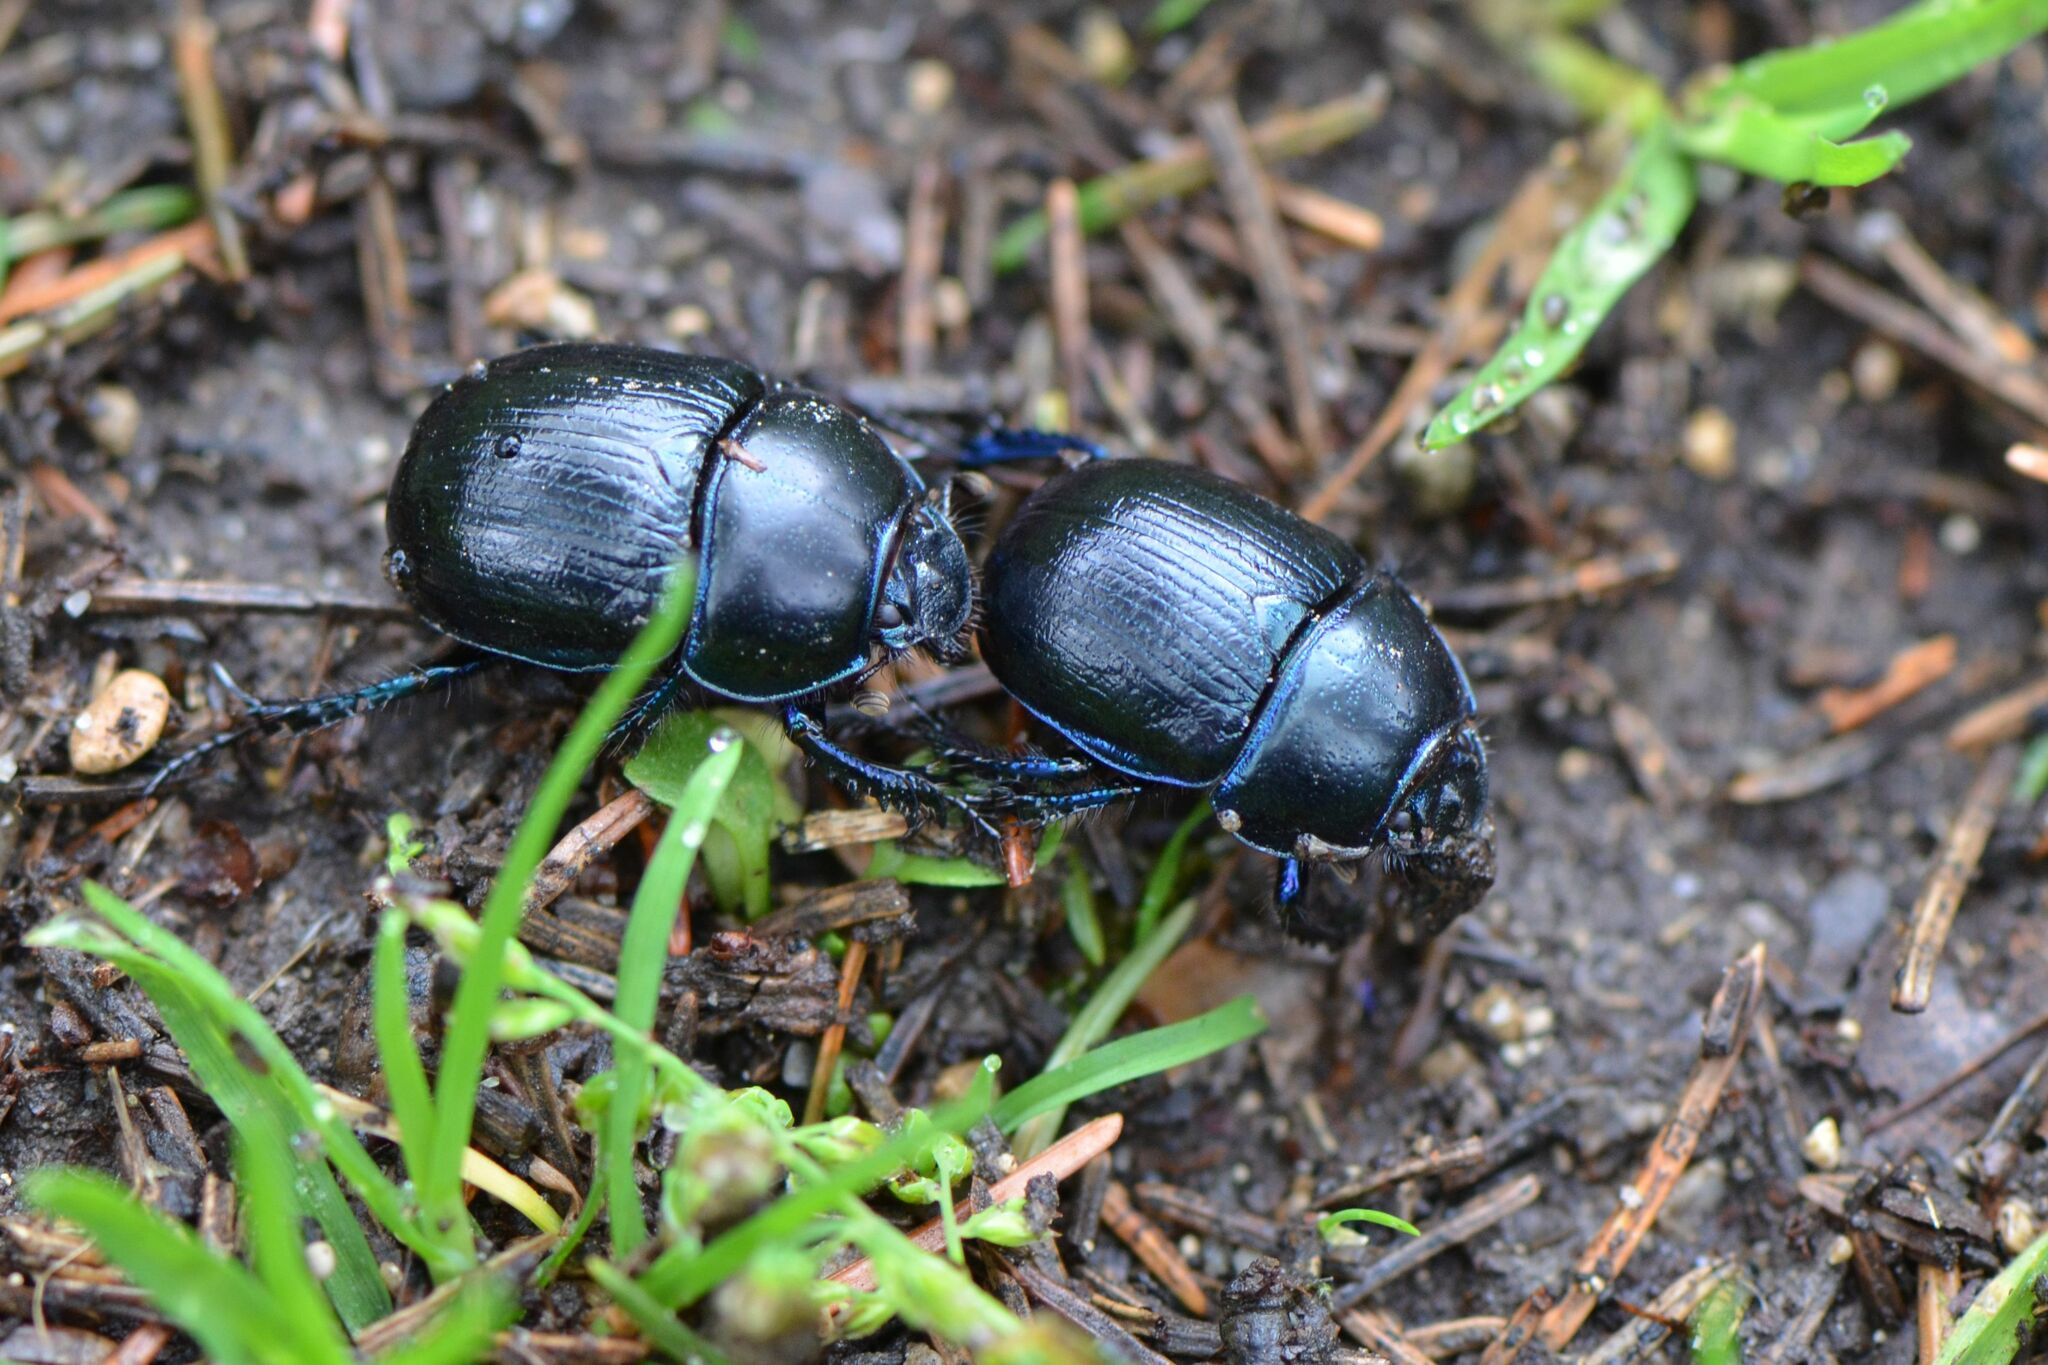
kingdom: Animalia
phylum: Arthropoda
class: Insecta
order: Coleoptera
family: Geotrupidae
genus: Anoplotrupes
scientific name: Anoplotrupes stercorosus
